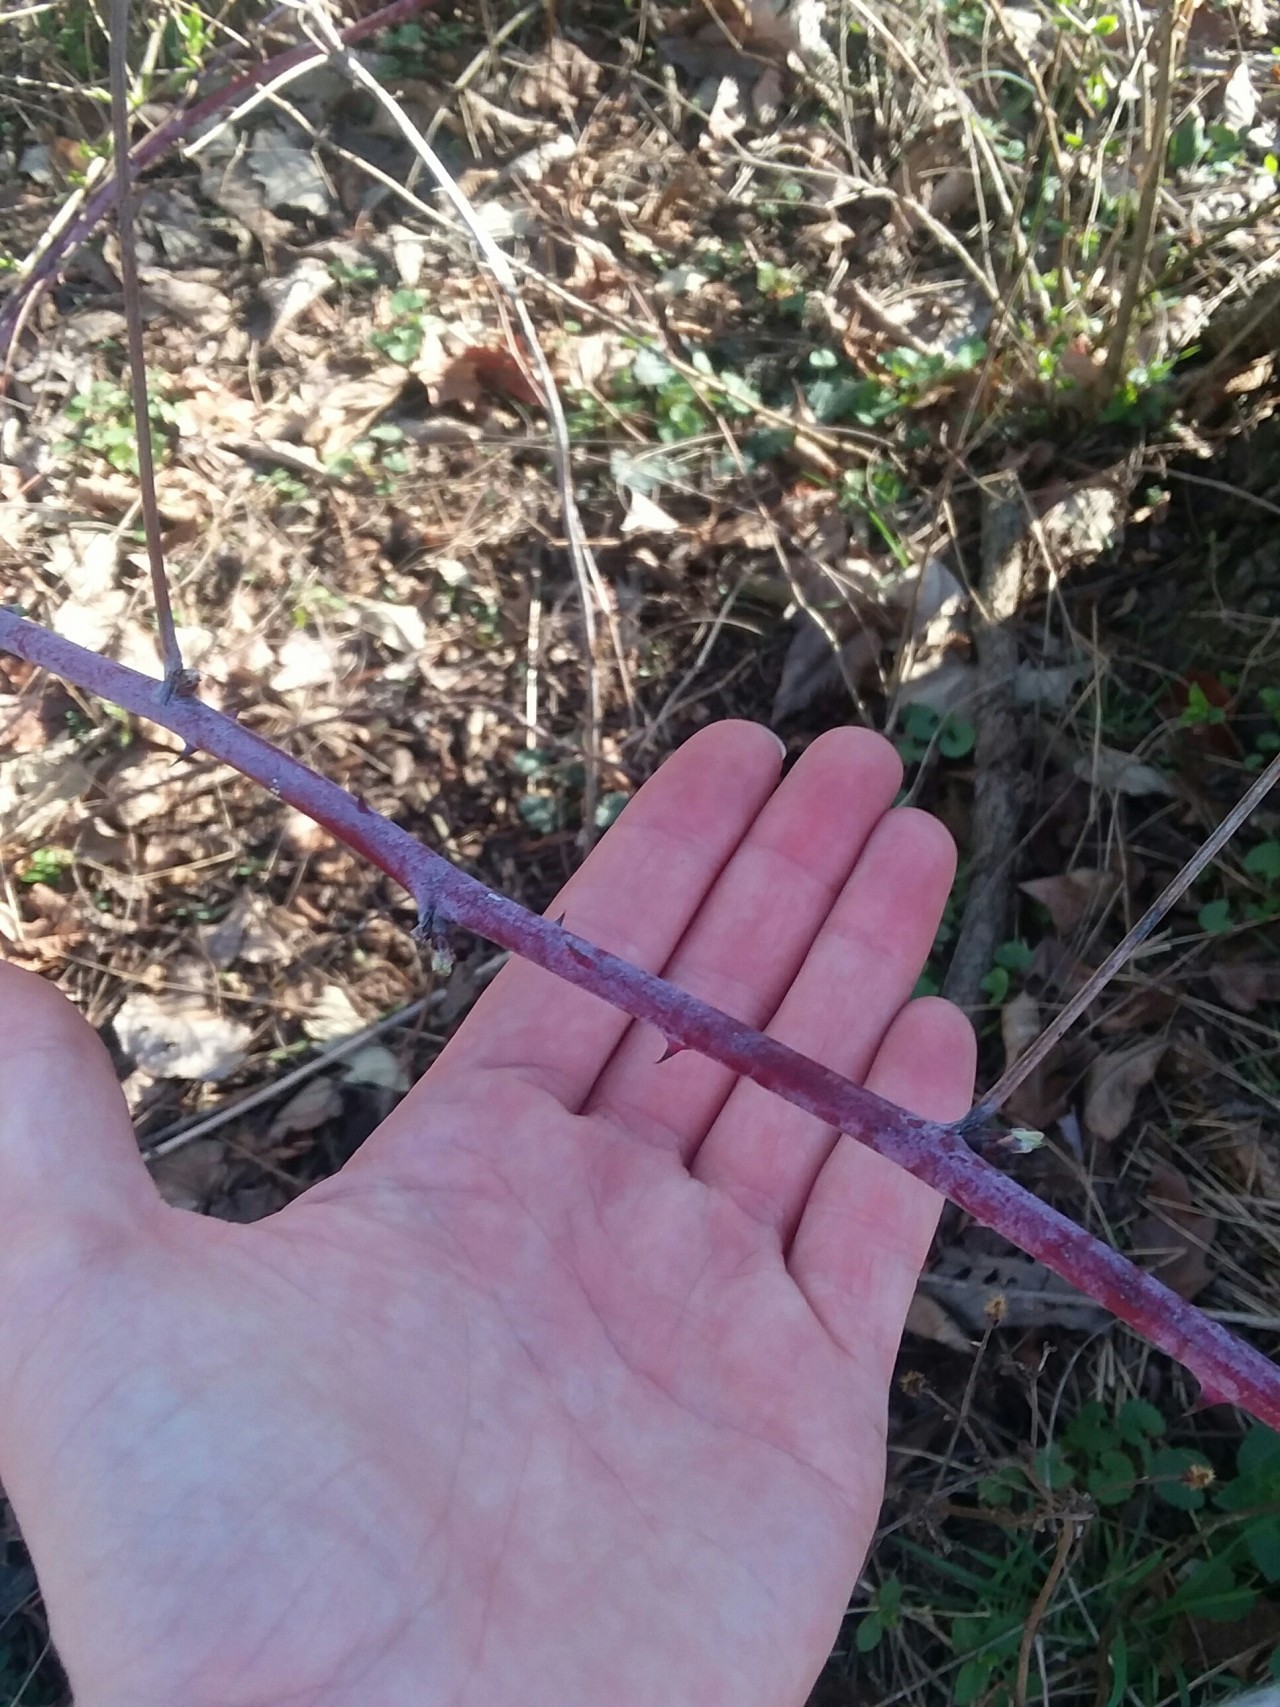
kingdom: Plantae
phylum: Tracheophyta
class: Magnoliopsida
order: Rosales
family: Rosaceae
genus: Rubus
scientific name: Rubus occidentalis
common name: Black raspberry
